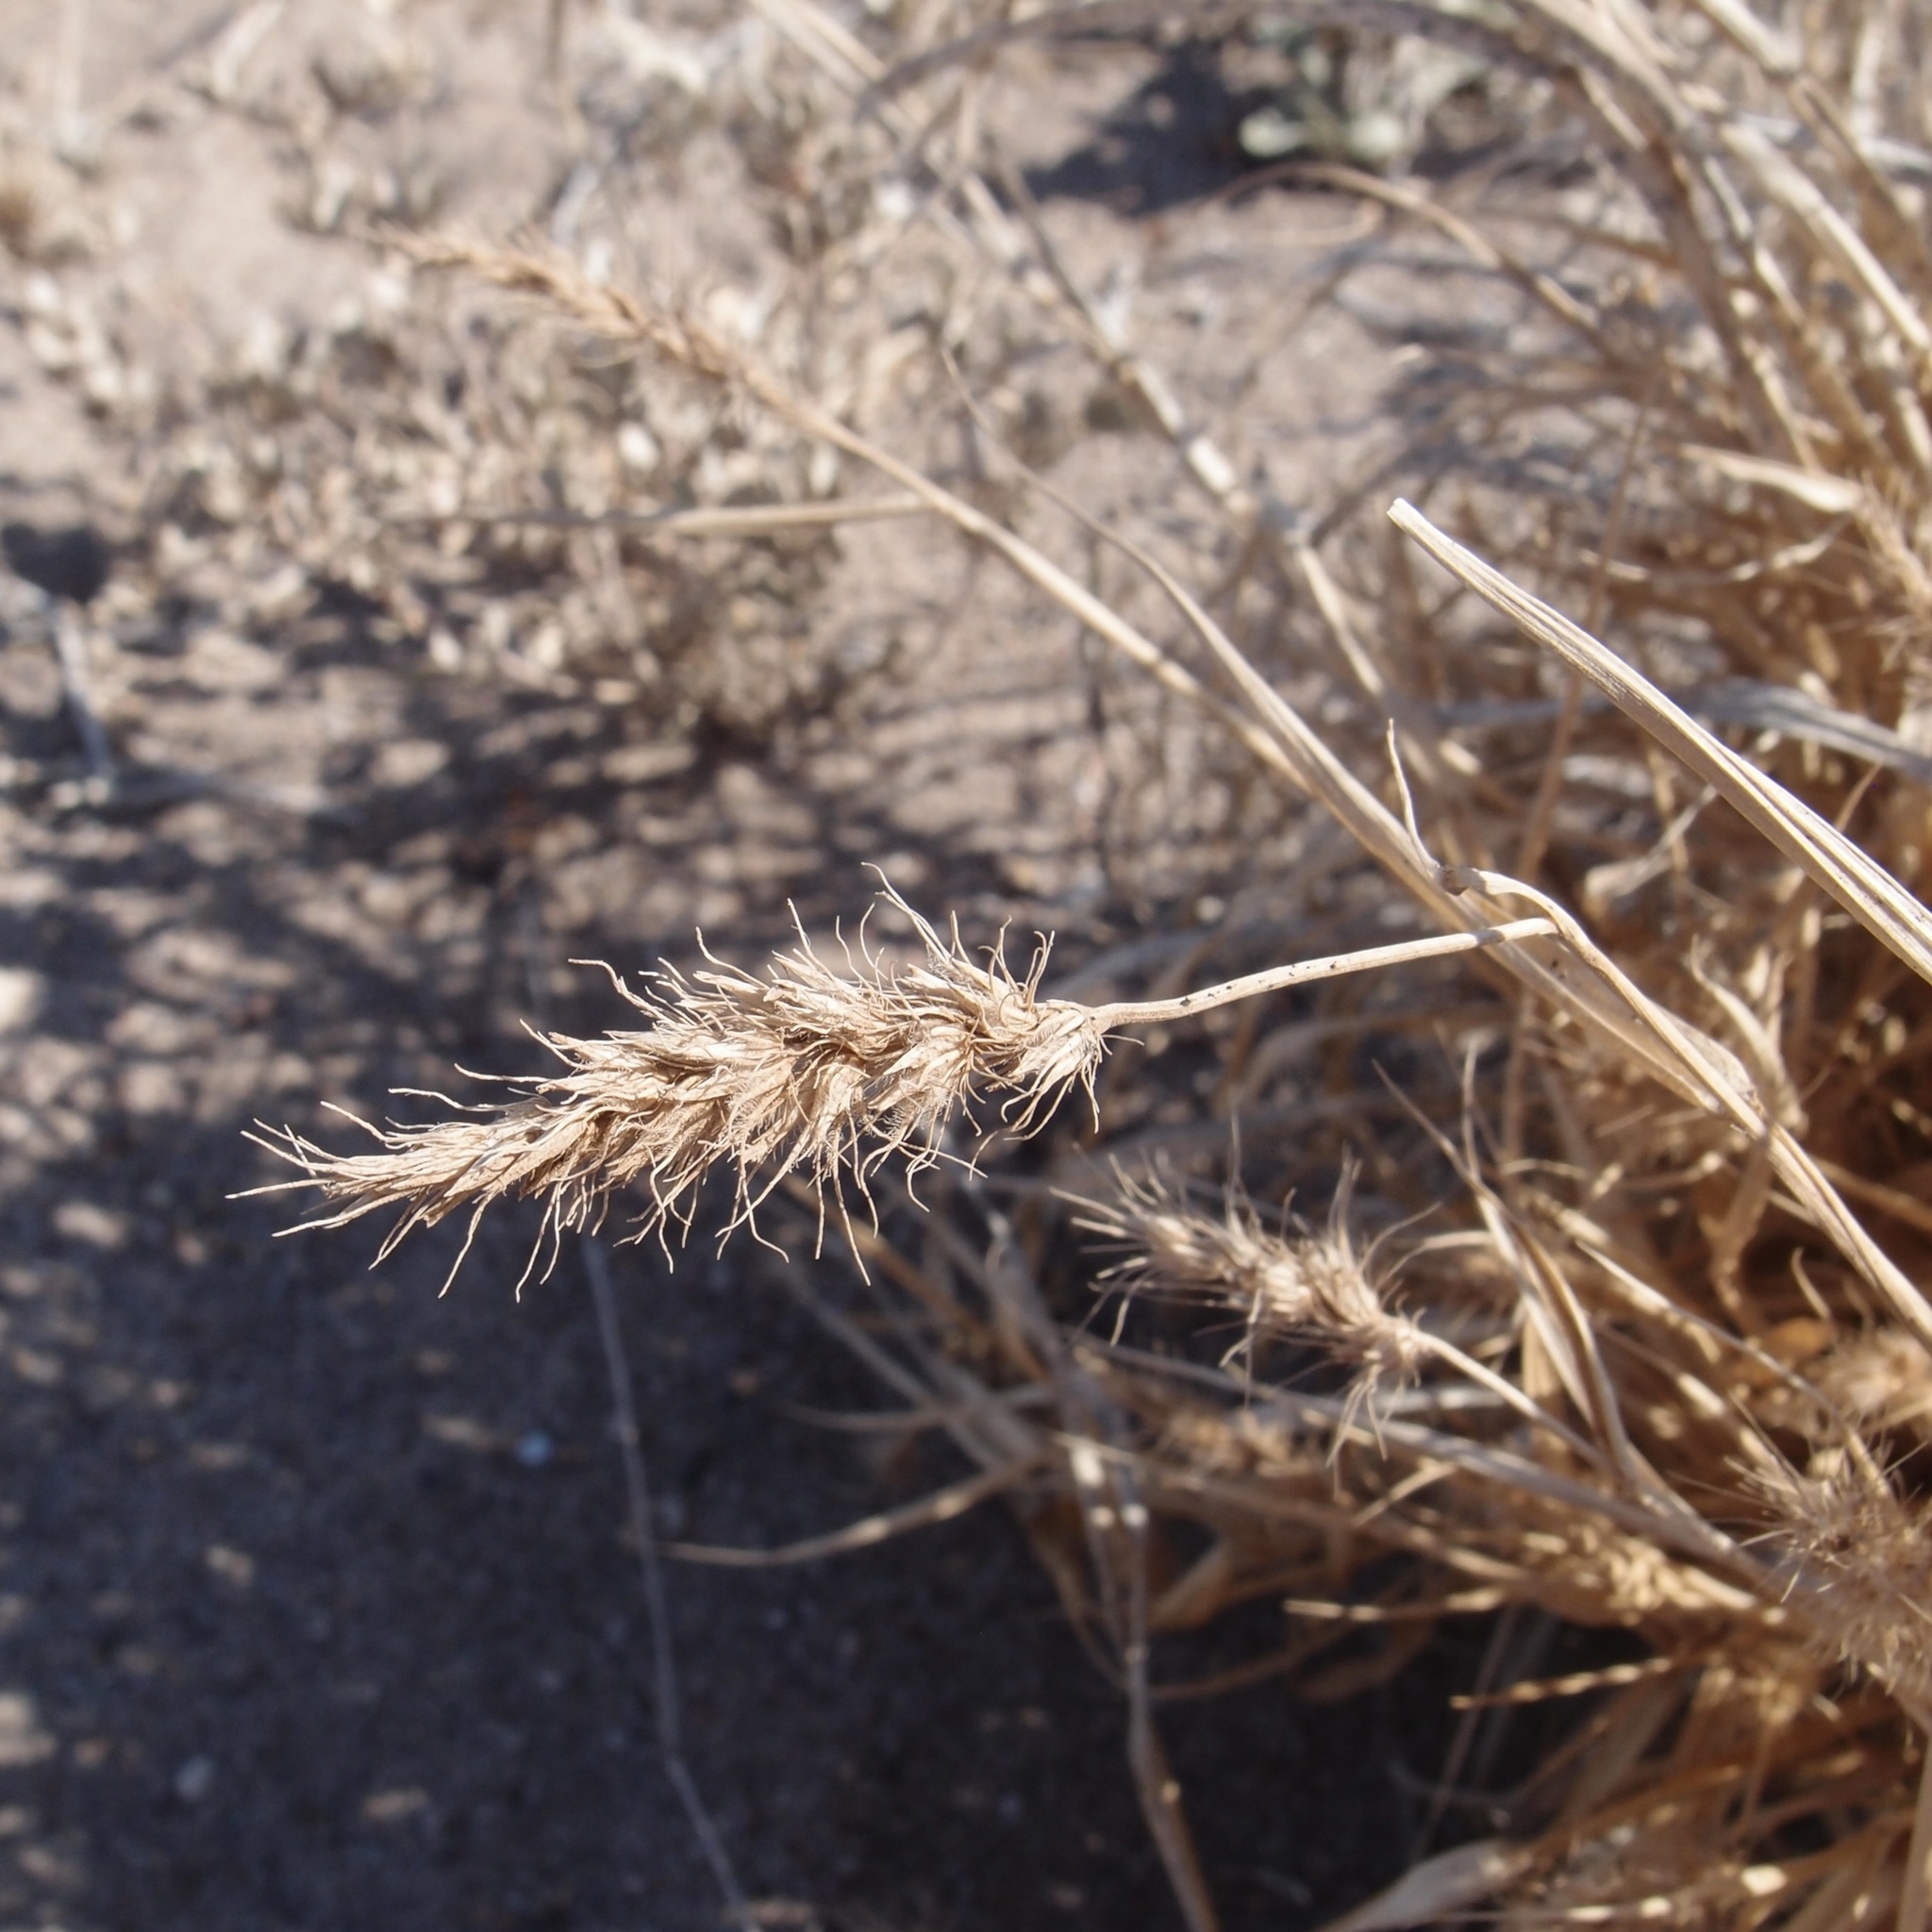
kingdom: Plantae
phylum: Tracheophyta
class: Liliopsida
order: Poales
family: Poaceae
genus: Cenchrus
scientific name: Cenchrus ciliaris
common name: Buffelgrass
